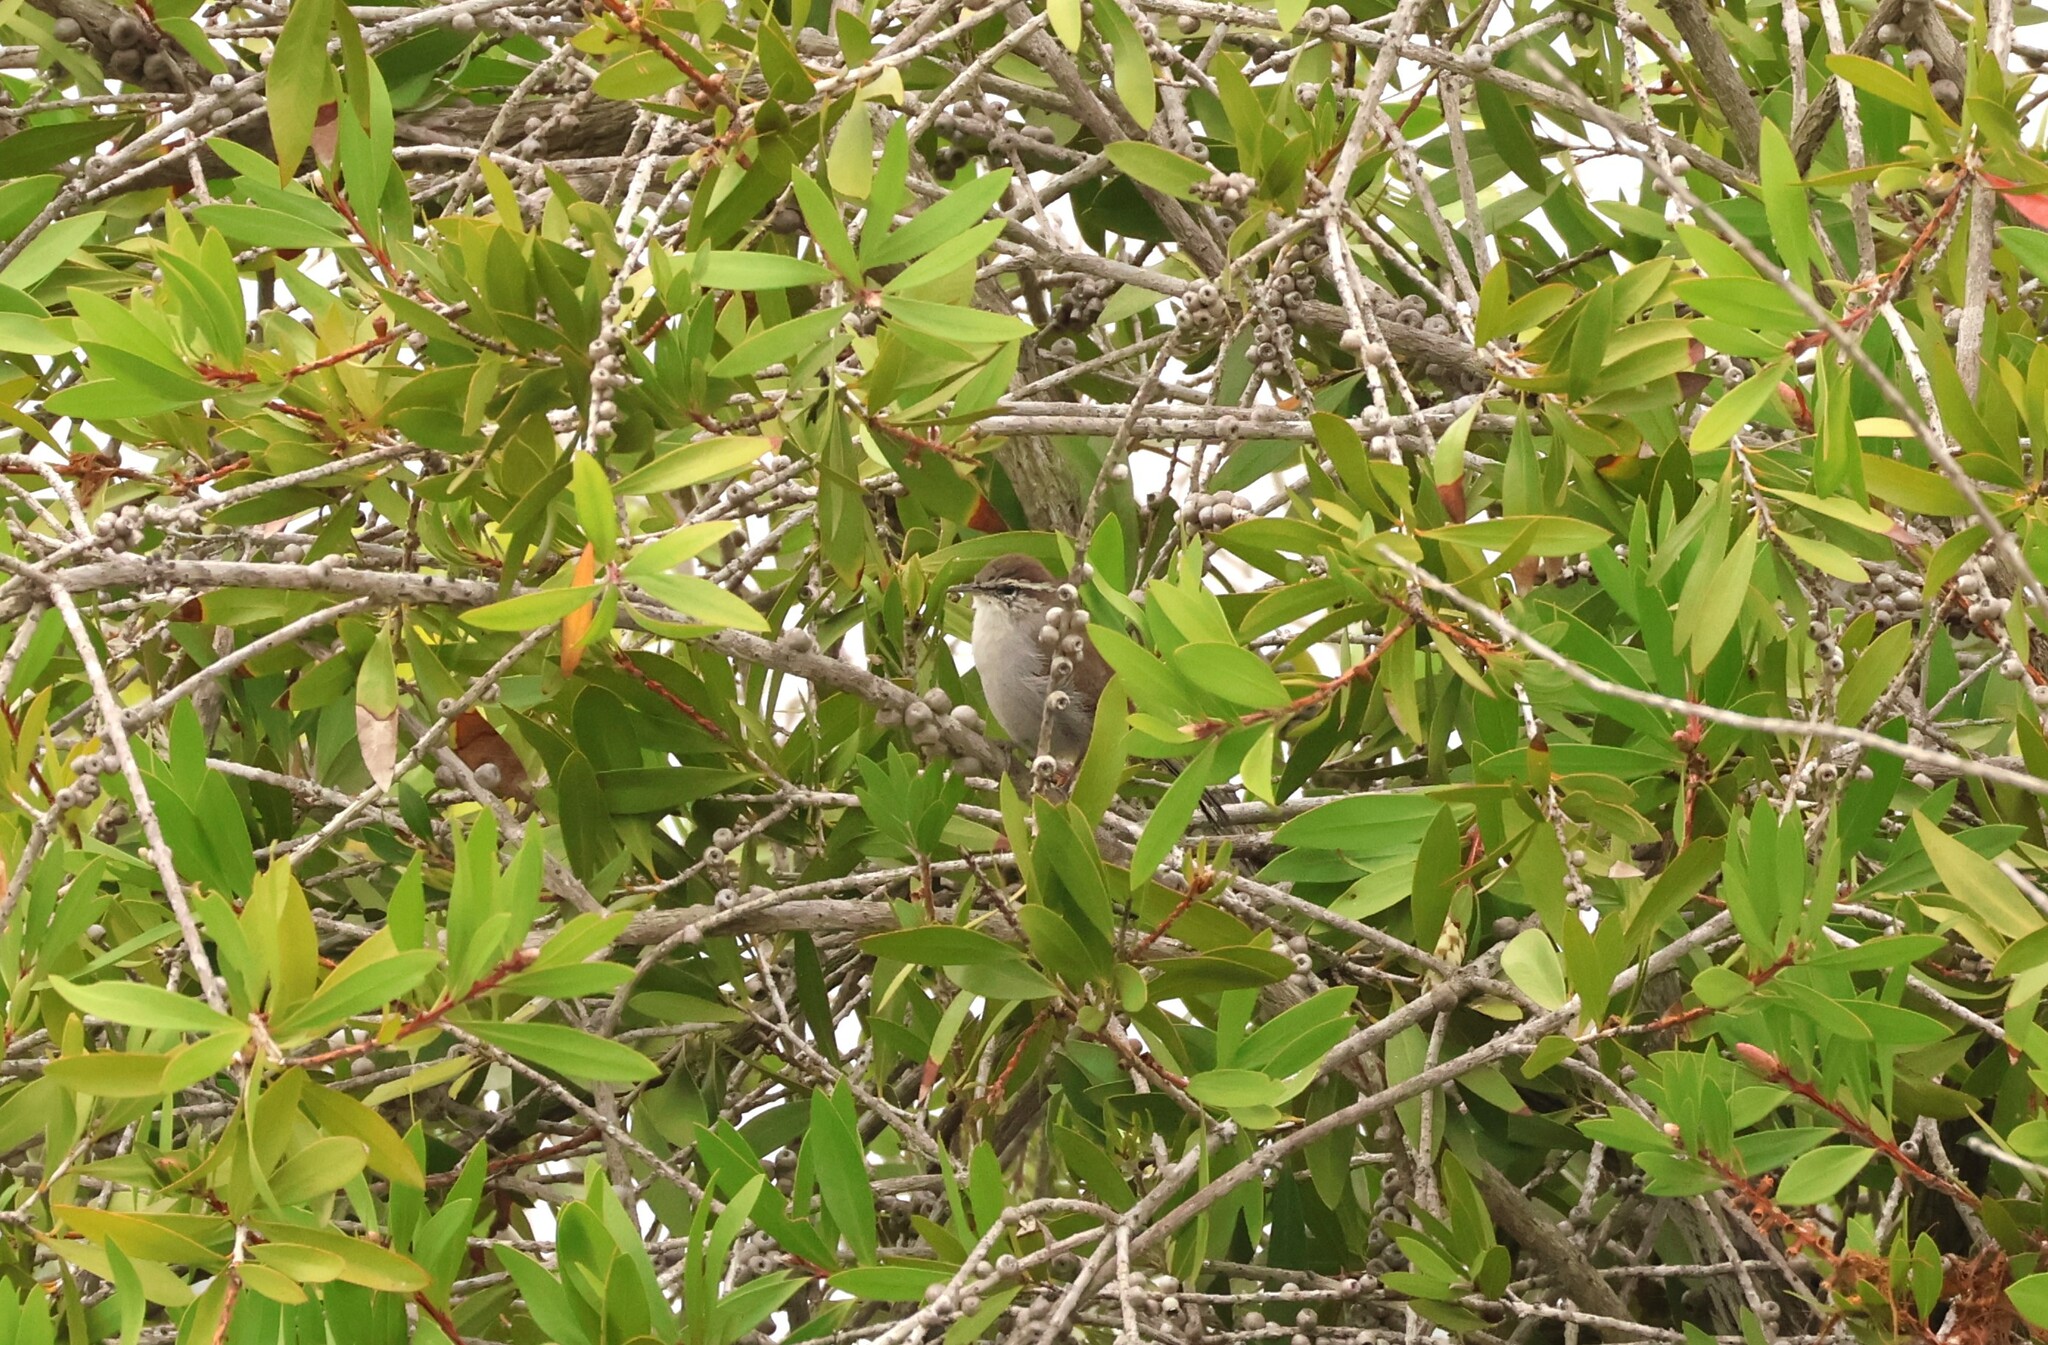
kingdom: Animalia
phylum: Chordata
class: Aves
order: Passeriformes
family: Troglodytidae
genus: Thryomanes
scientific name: Thryomanes bewickii
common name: Bewick's wren
